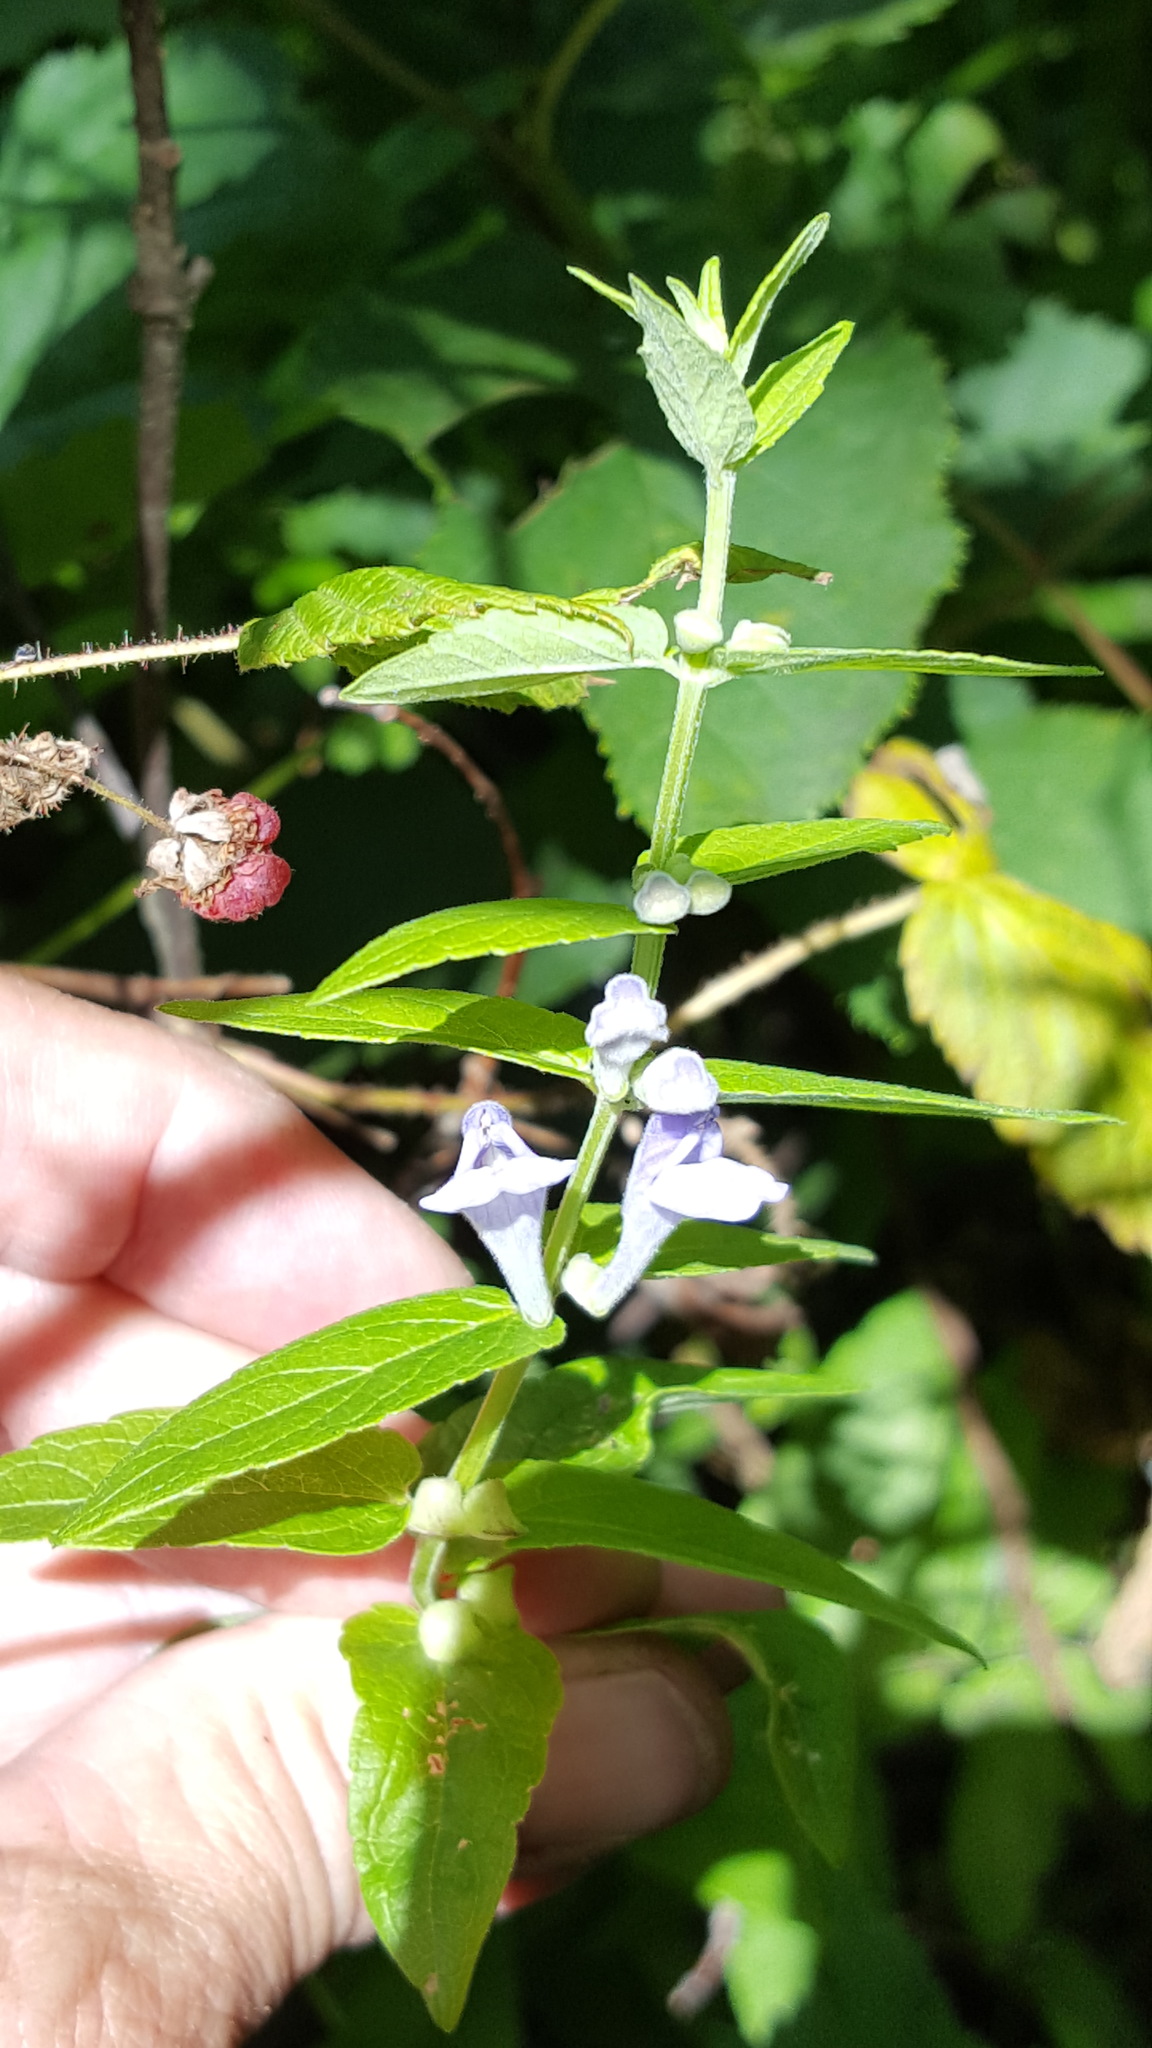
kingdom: Plantae
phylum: Tracheophyta
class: Magnoliopsida
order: Lamiales
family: Lamiaceae
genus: Scutellaria
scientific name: Scutellaria galericulata
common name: Skullcap
